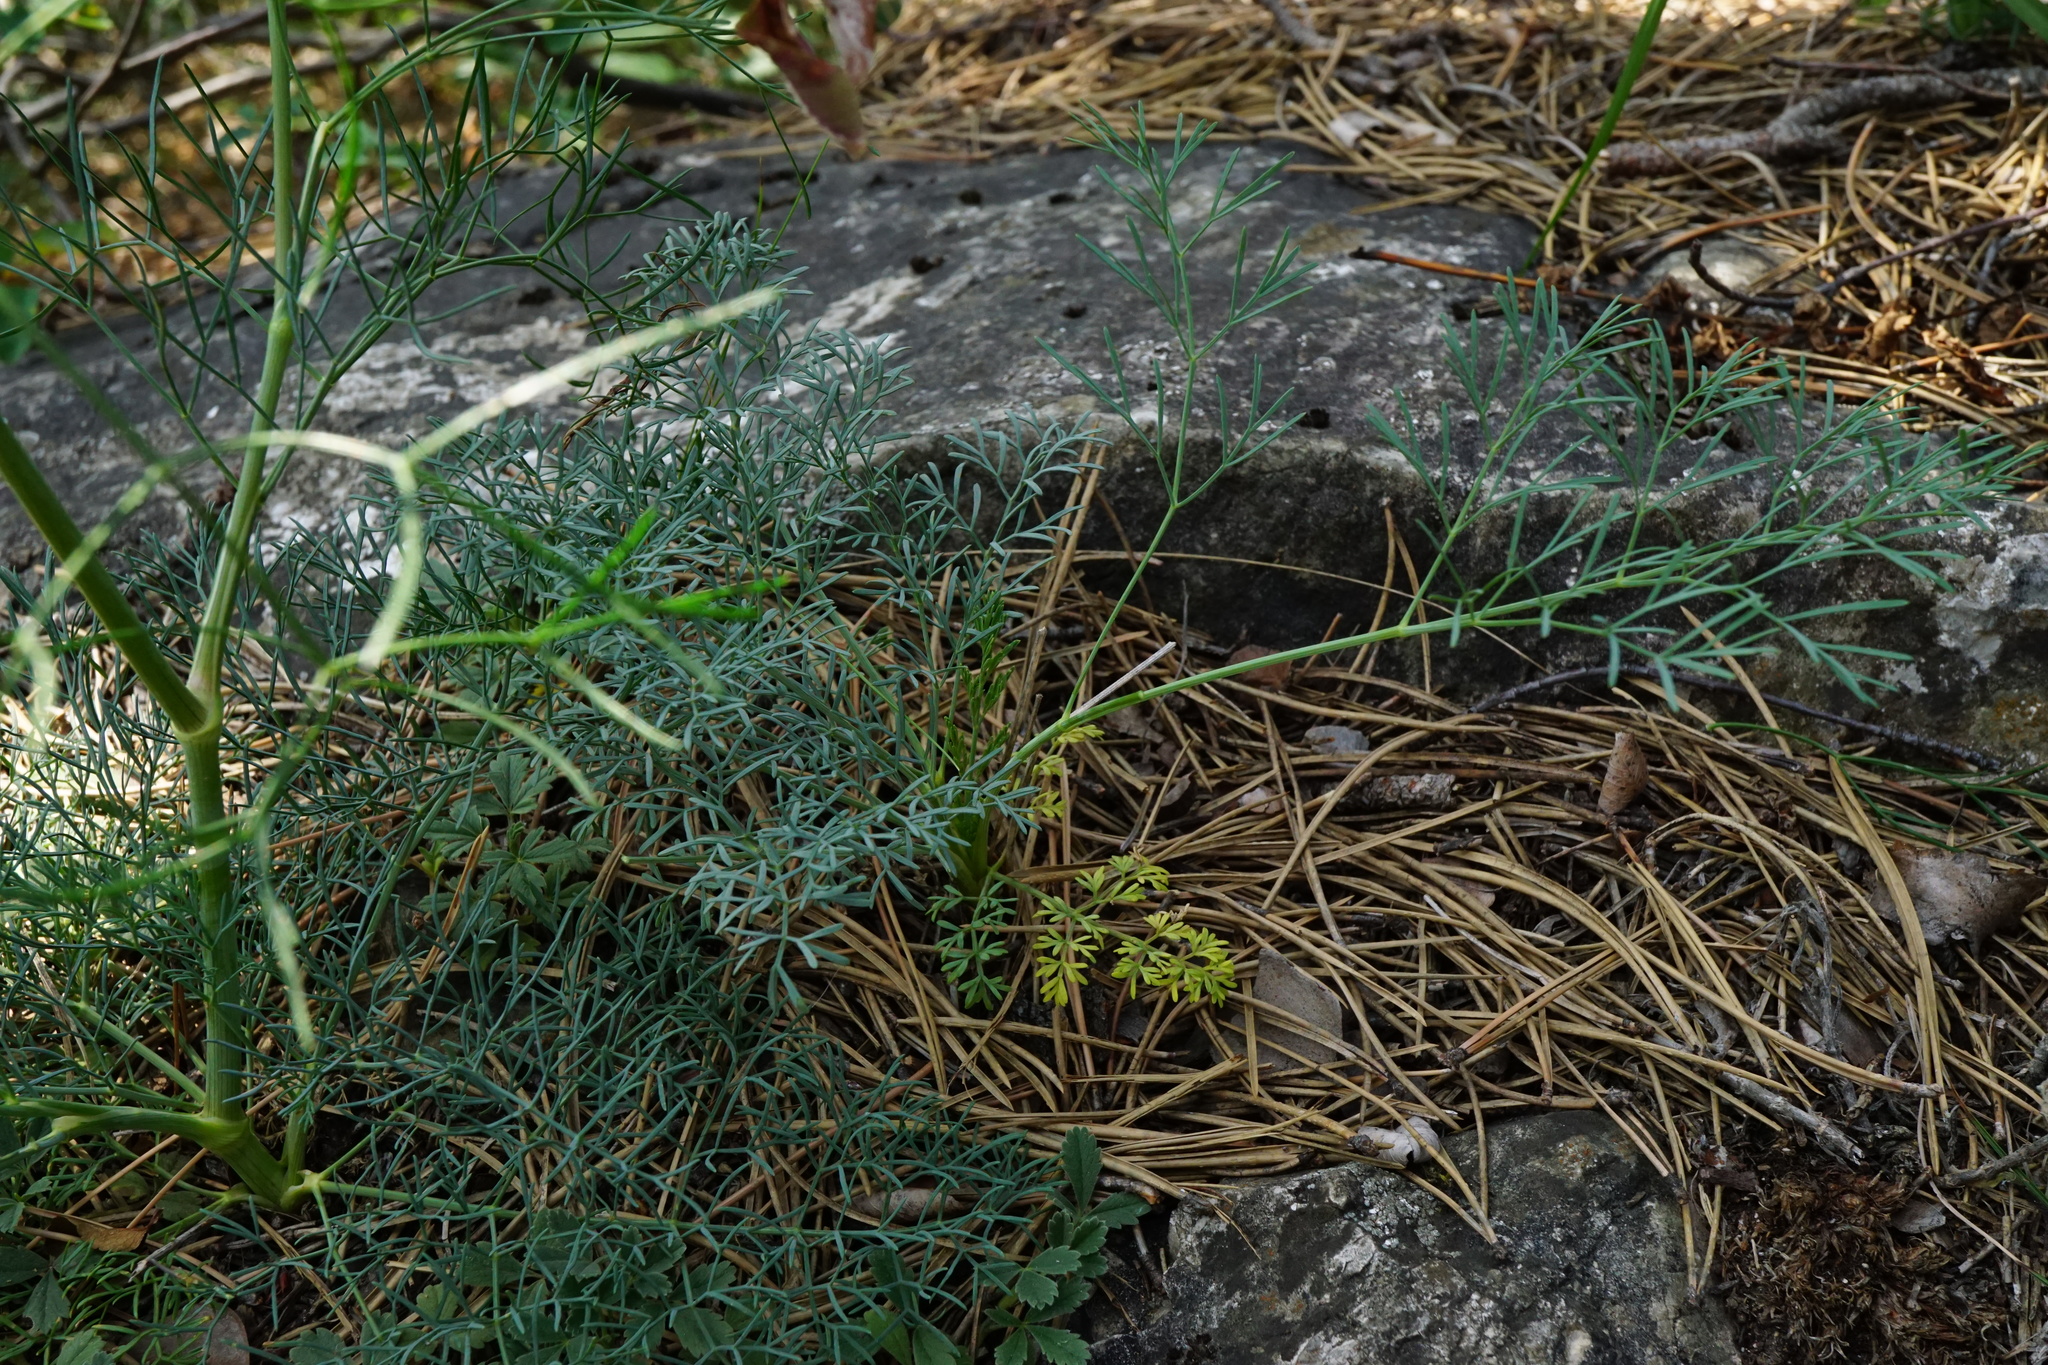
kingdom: Plantae
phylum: Tracheophyta
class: Magnoliopsida
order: Apiales
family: Apiaceae
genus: Seseli
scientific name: Seseli osseum
